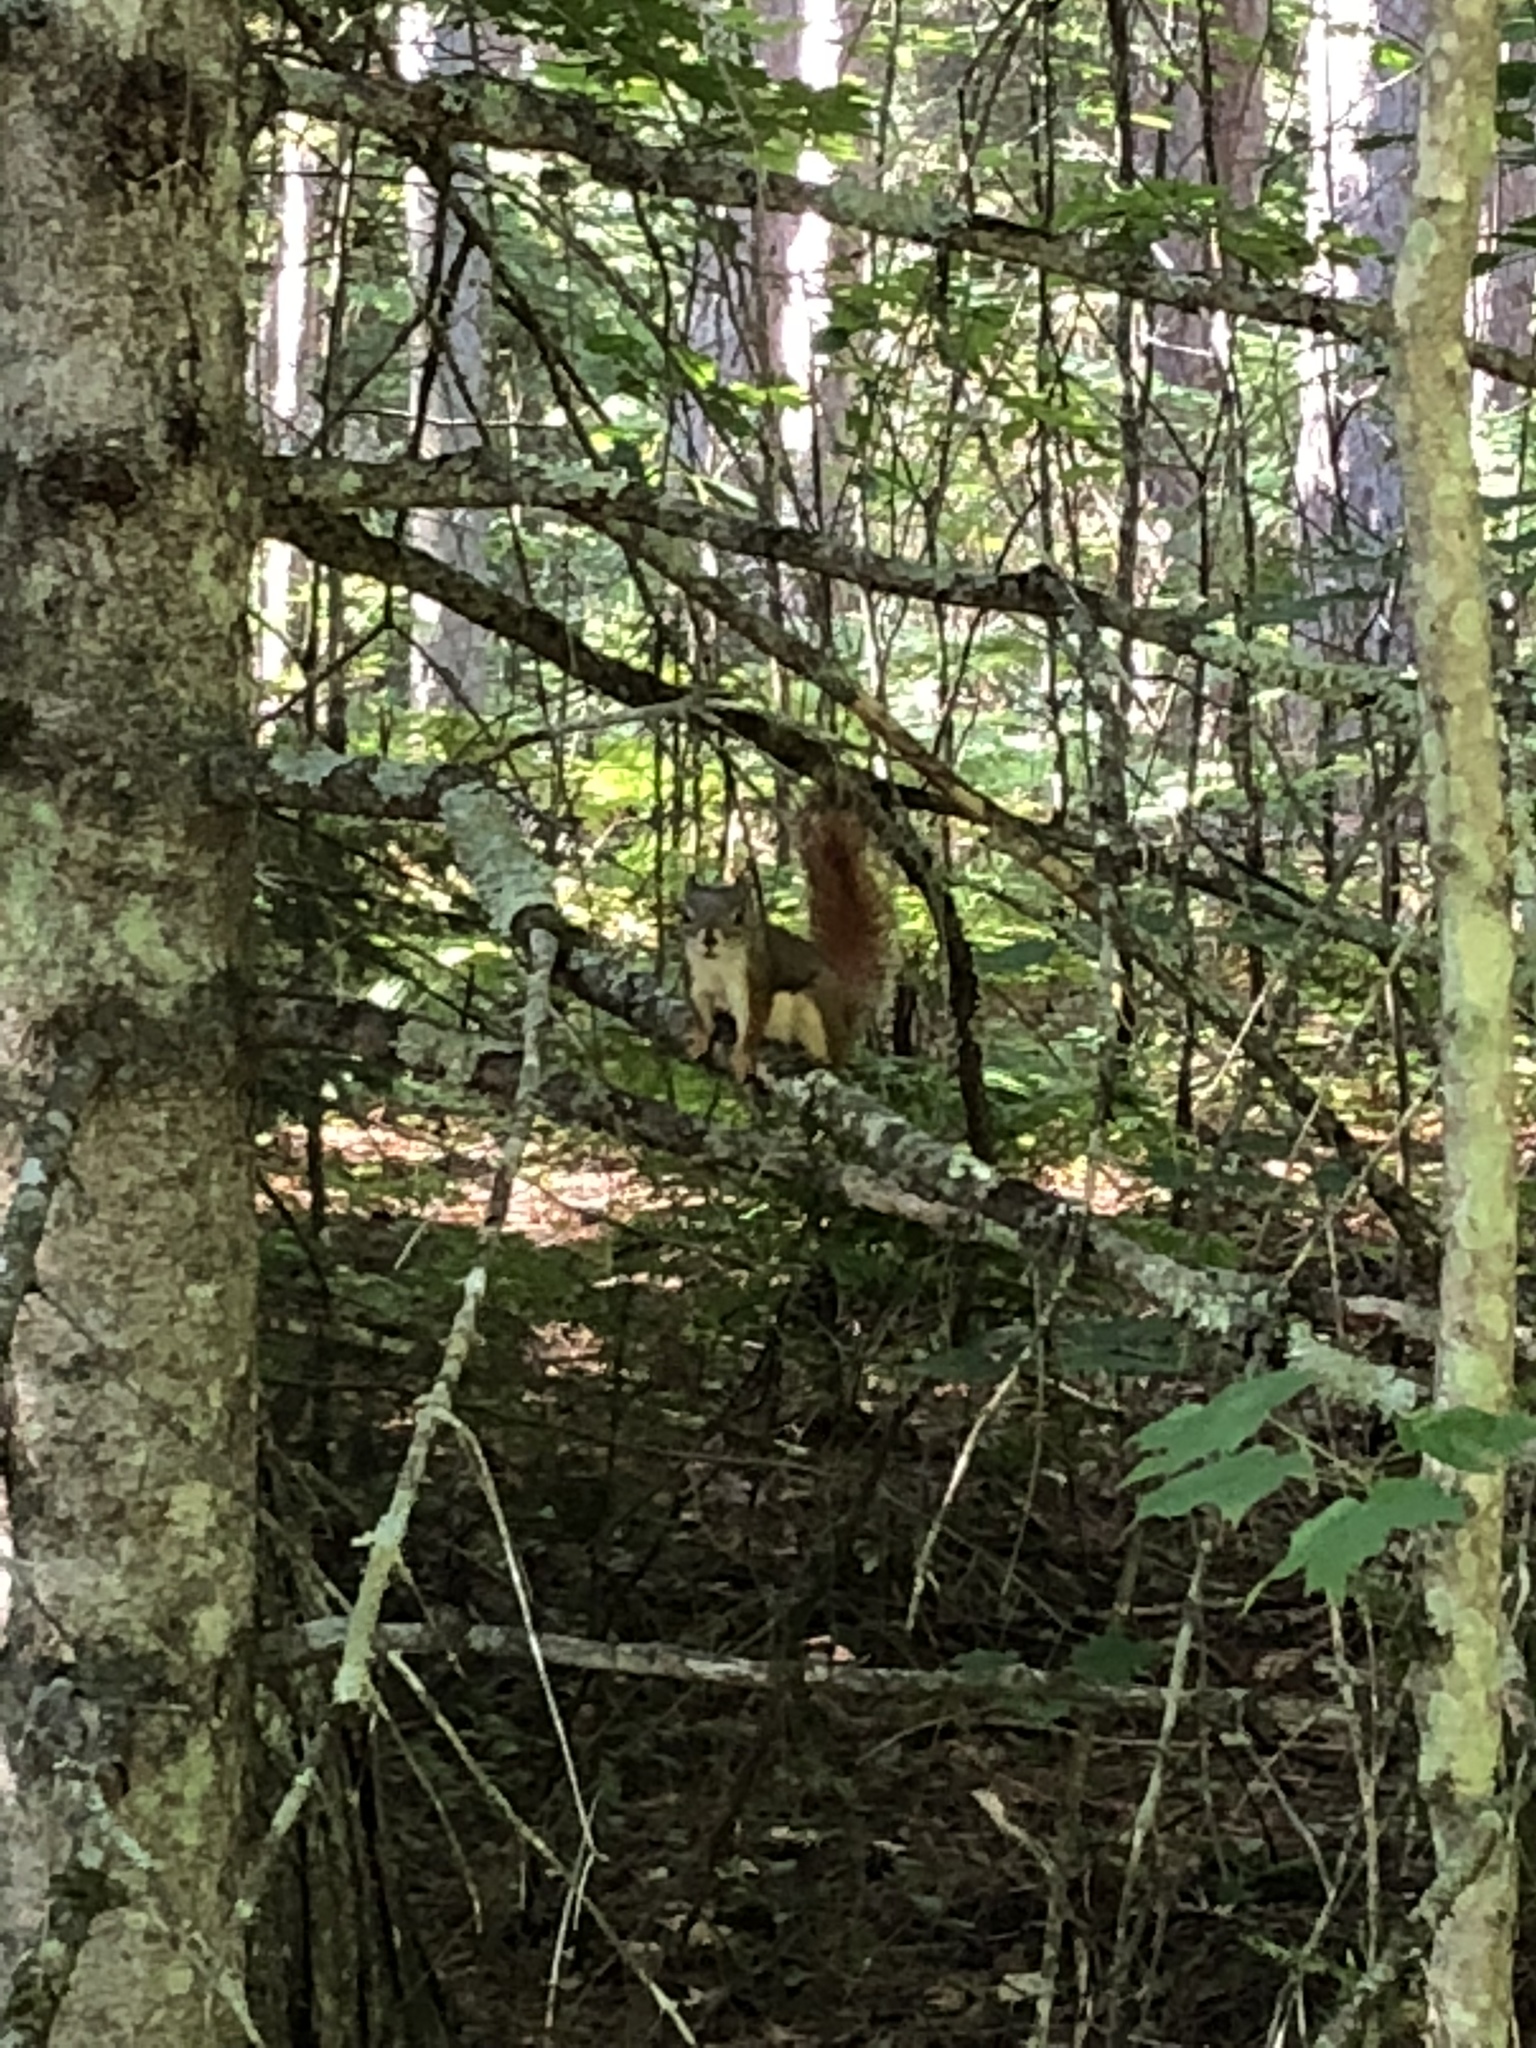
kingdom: Animalia
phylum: Chordata
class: Mammalia
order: Rodentia
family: Sciuridae
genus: Tamiasciurus
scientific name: Tamiasciurus hudsonicus
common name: Red squirrel
